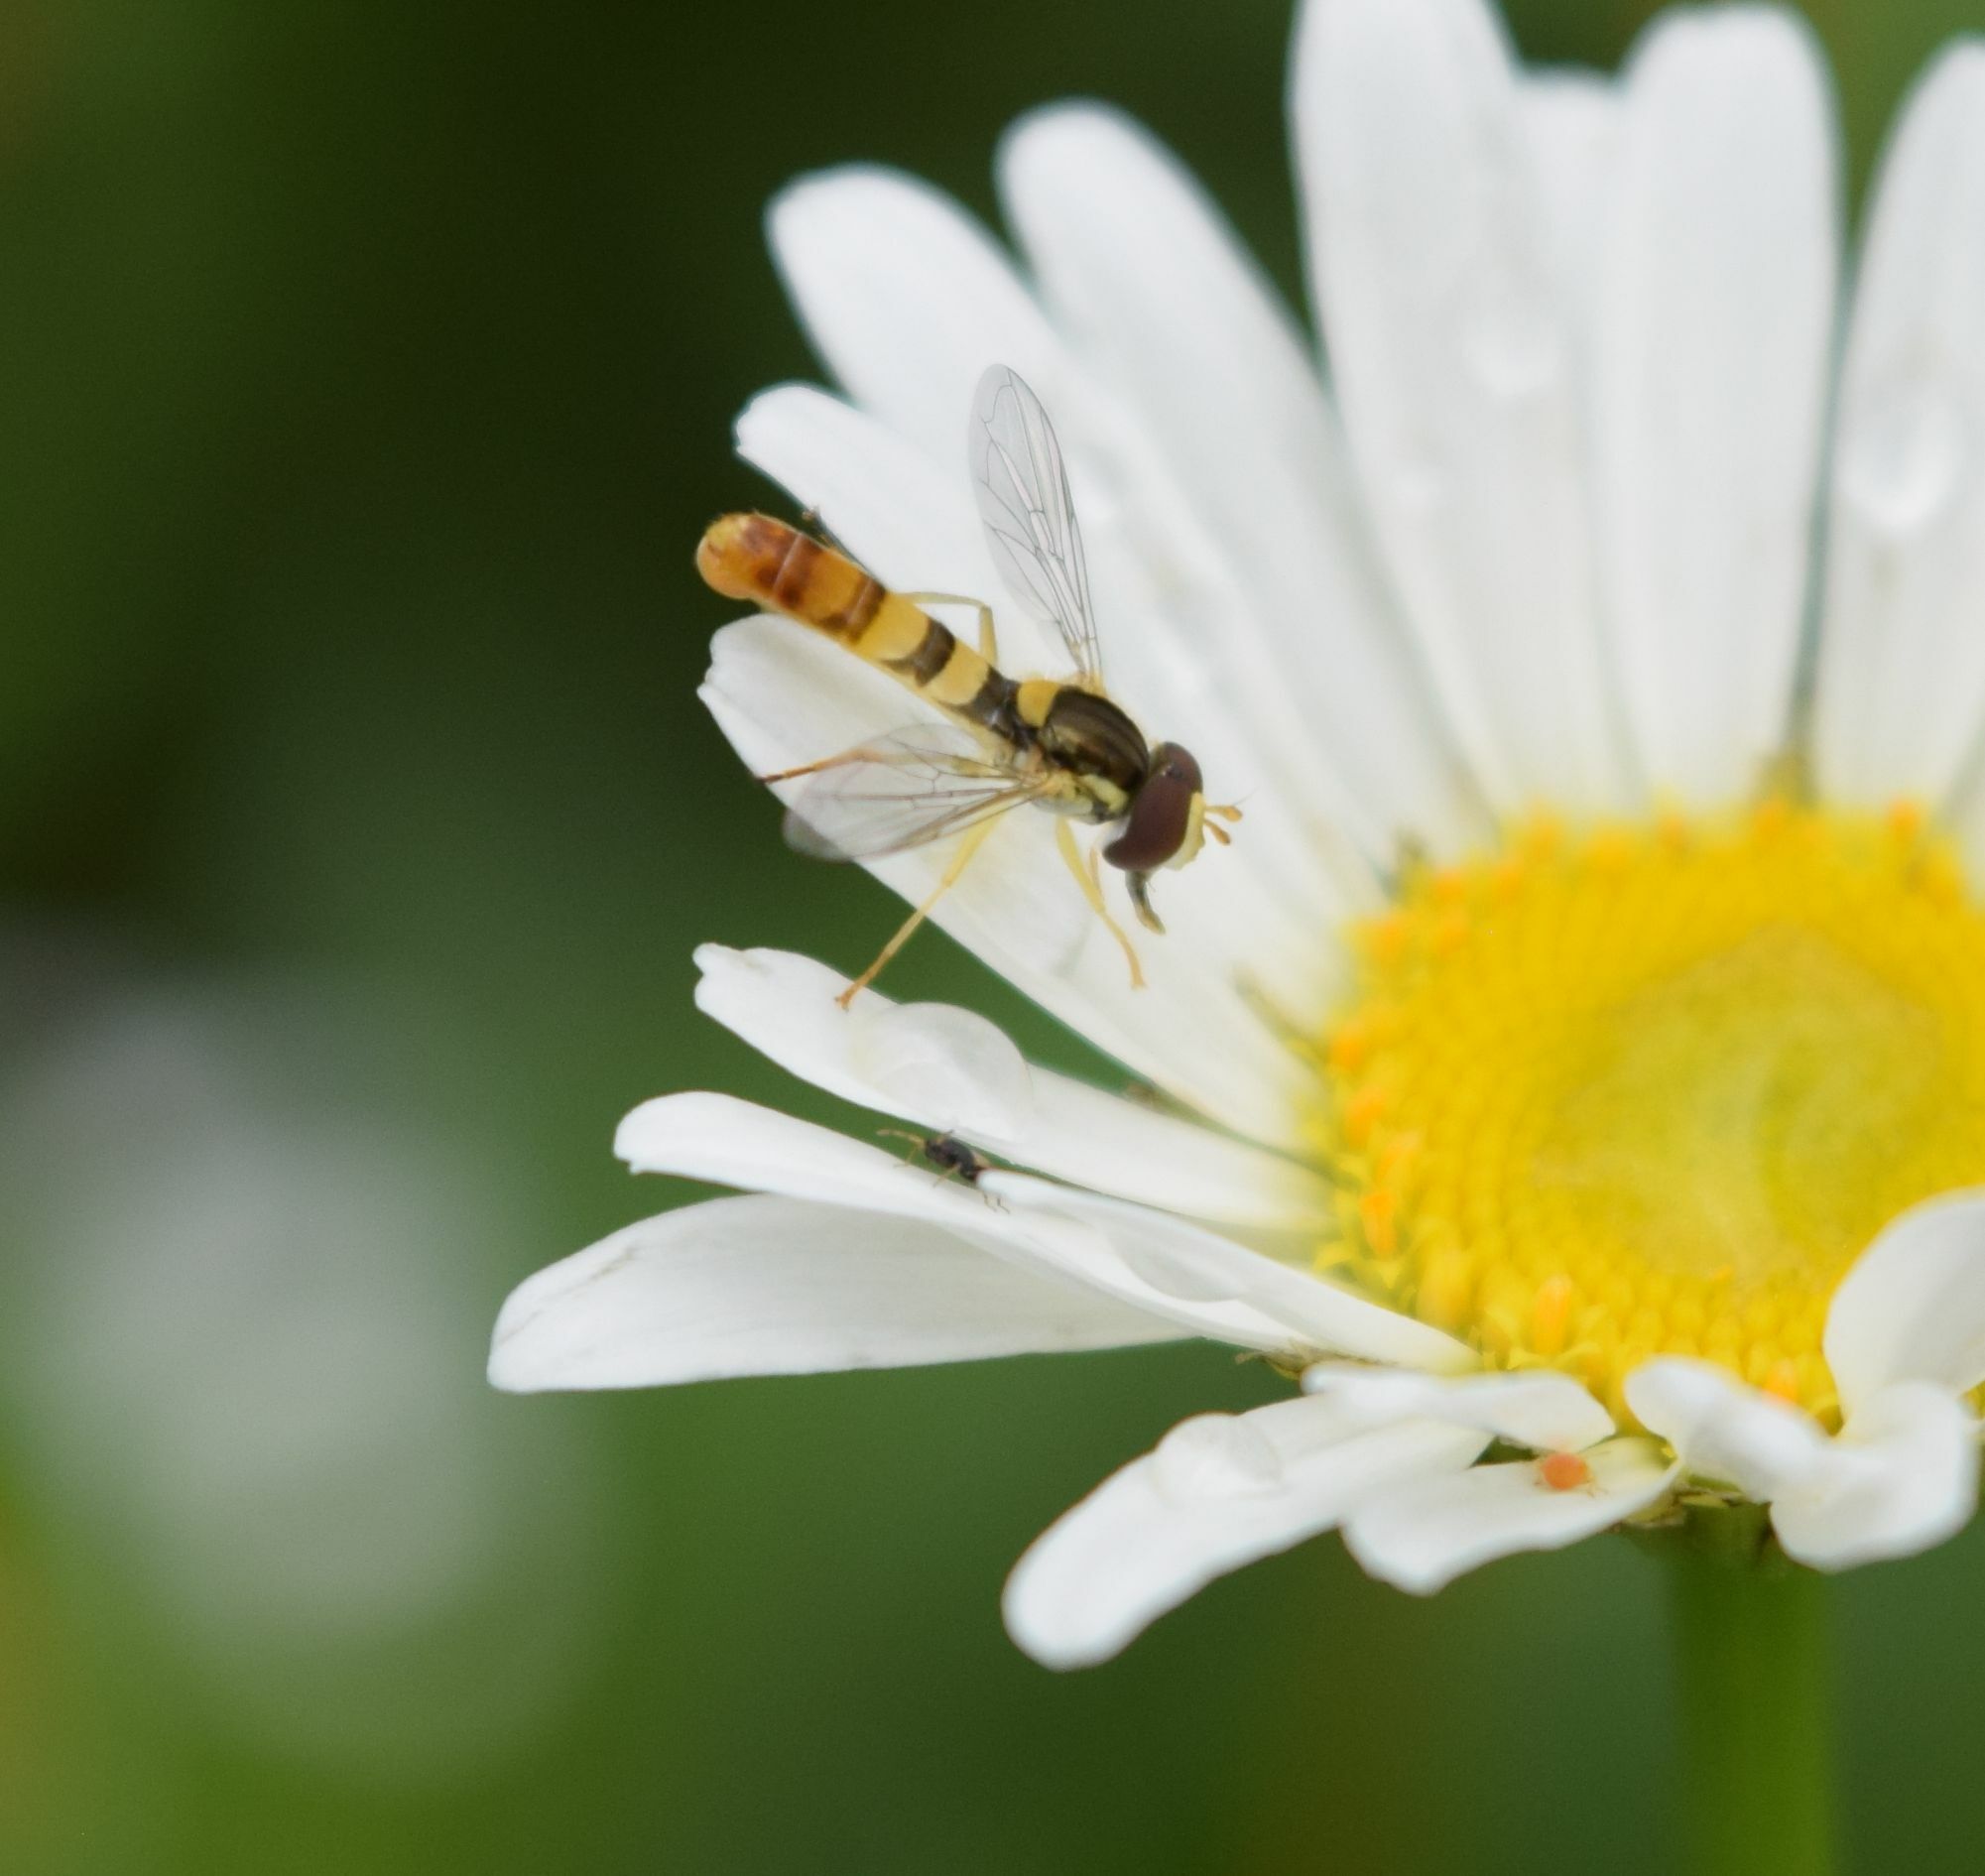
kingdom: Animalia
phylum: Arthropoda
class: Insecta
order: Diptera
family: Syrphidae
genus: Sphaerophoria
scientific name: Sphaerophoria contigua
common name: Tufted globetail
